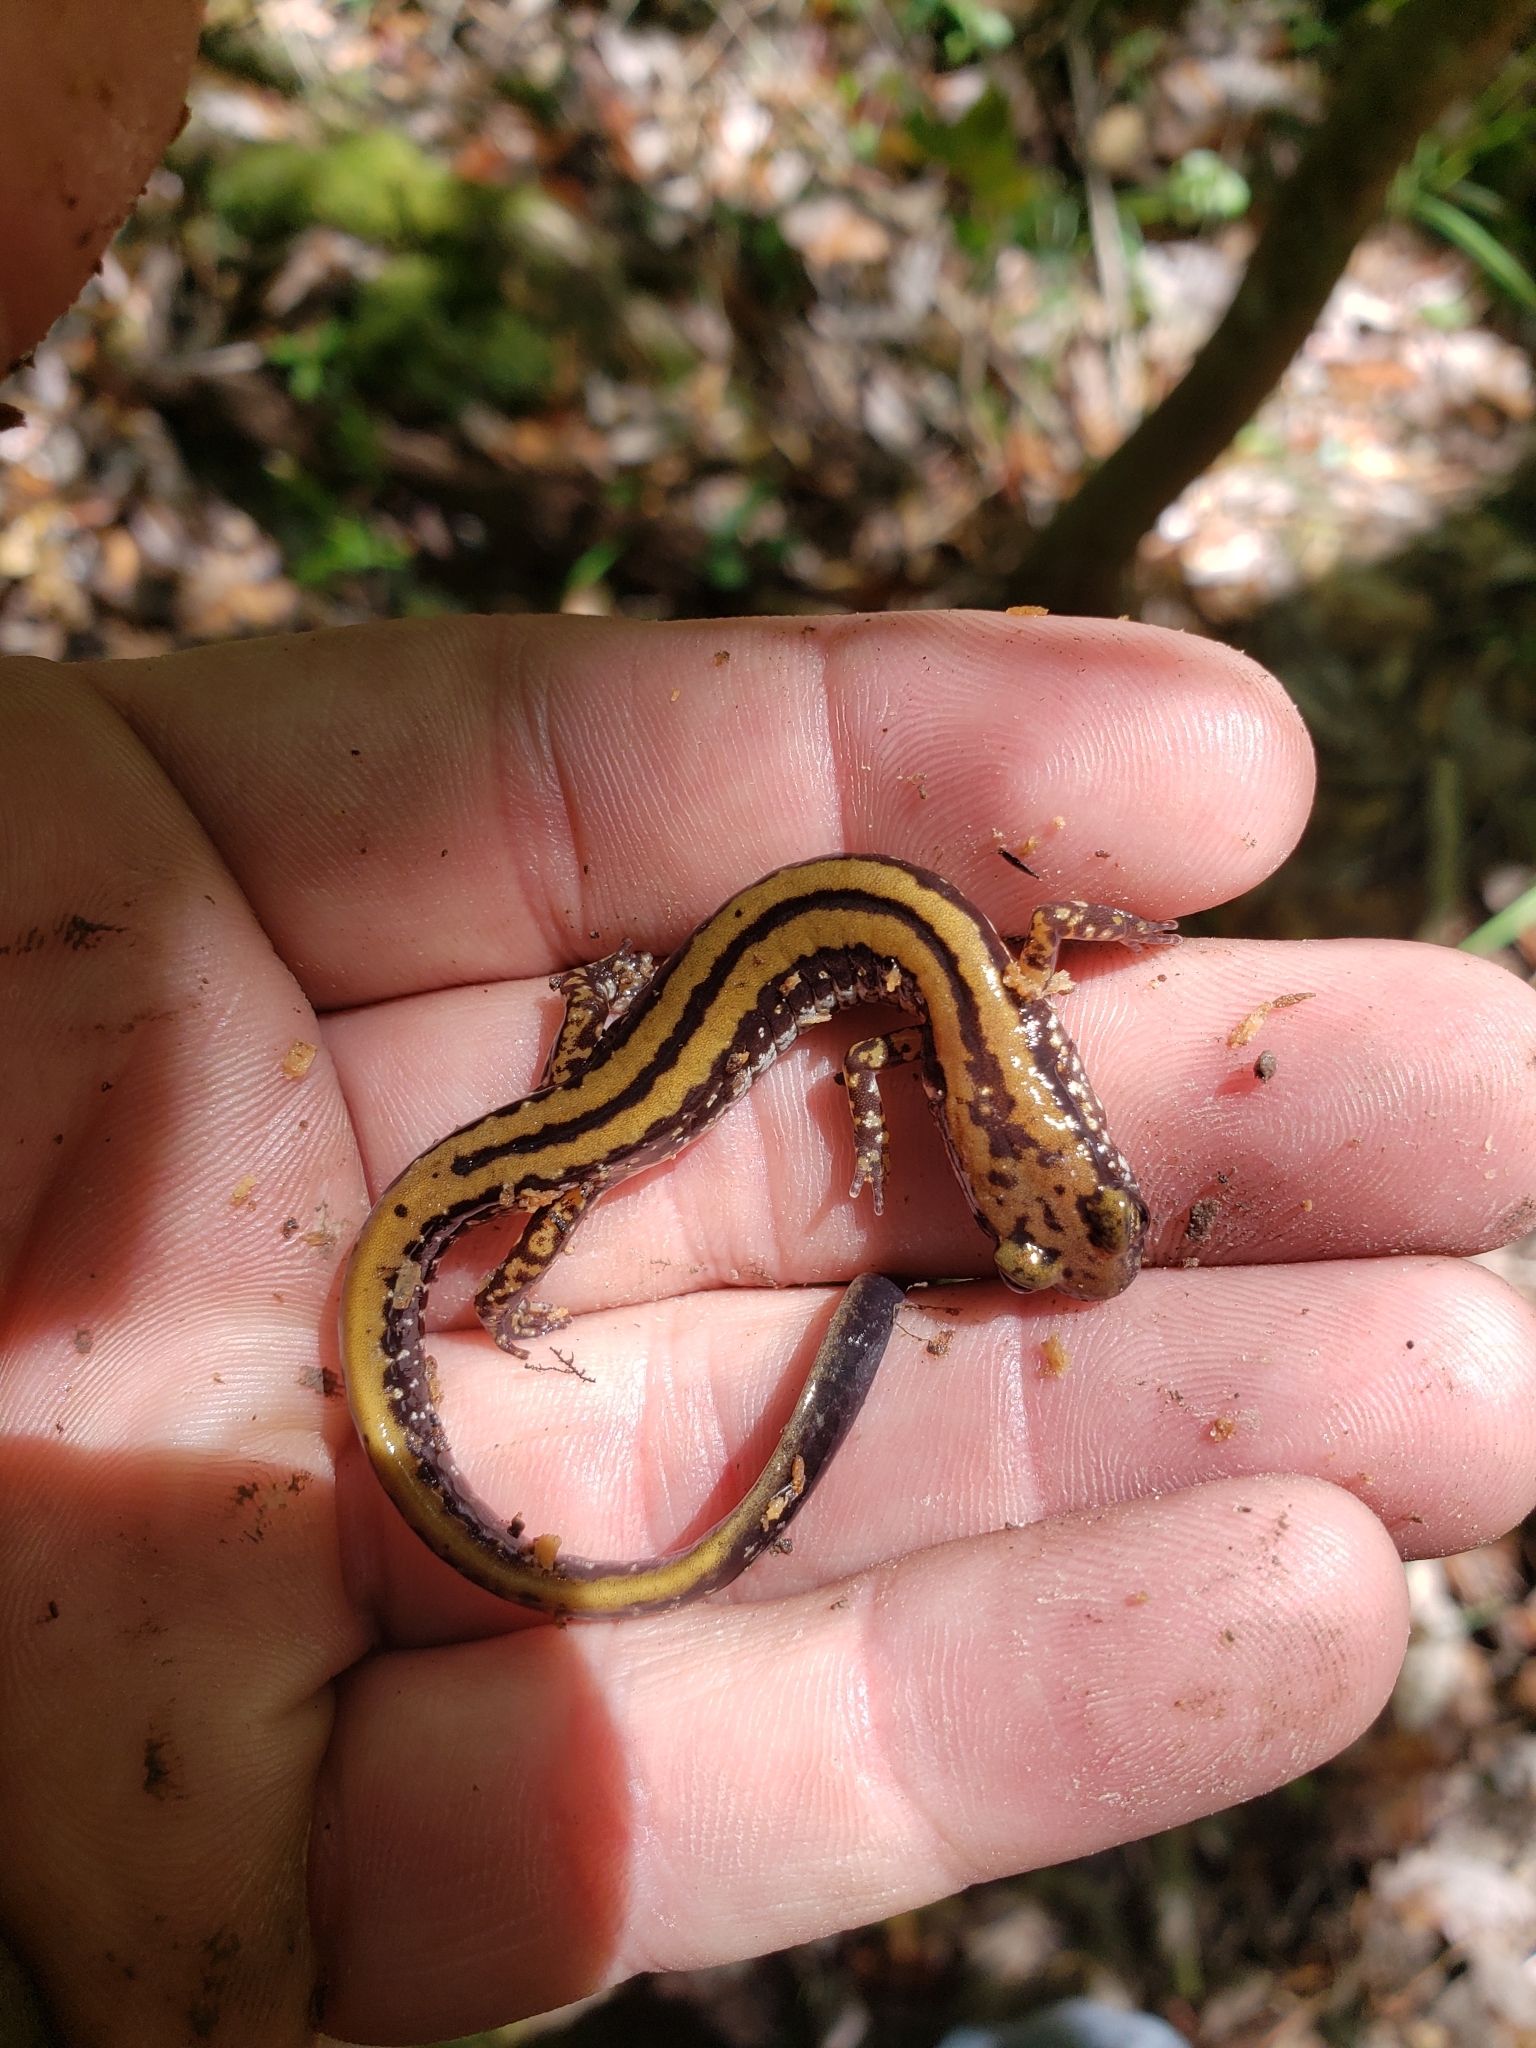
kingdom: Animalia
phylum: Chordata
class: Amphibia
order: Caudata
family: Plethodontidae
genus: Eurycea
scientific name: Eurycea guttolineata
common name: Three-lined salamander
